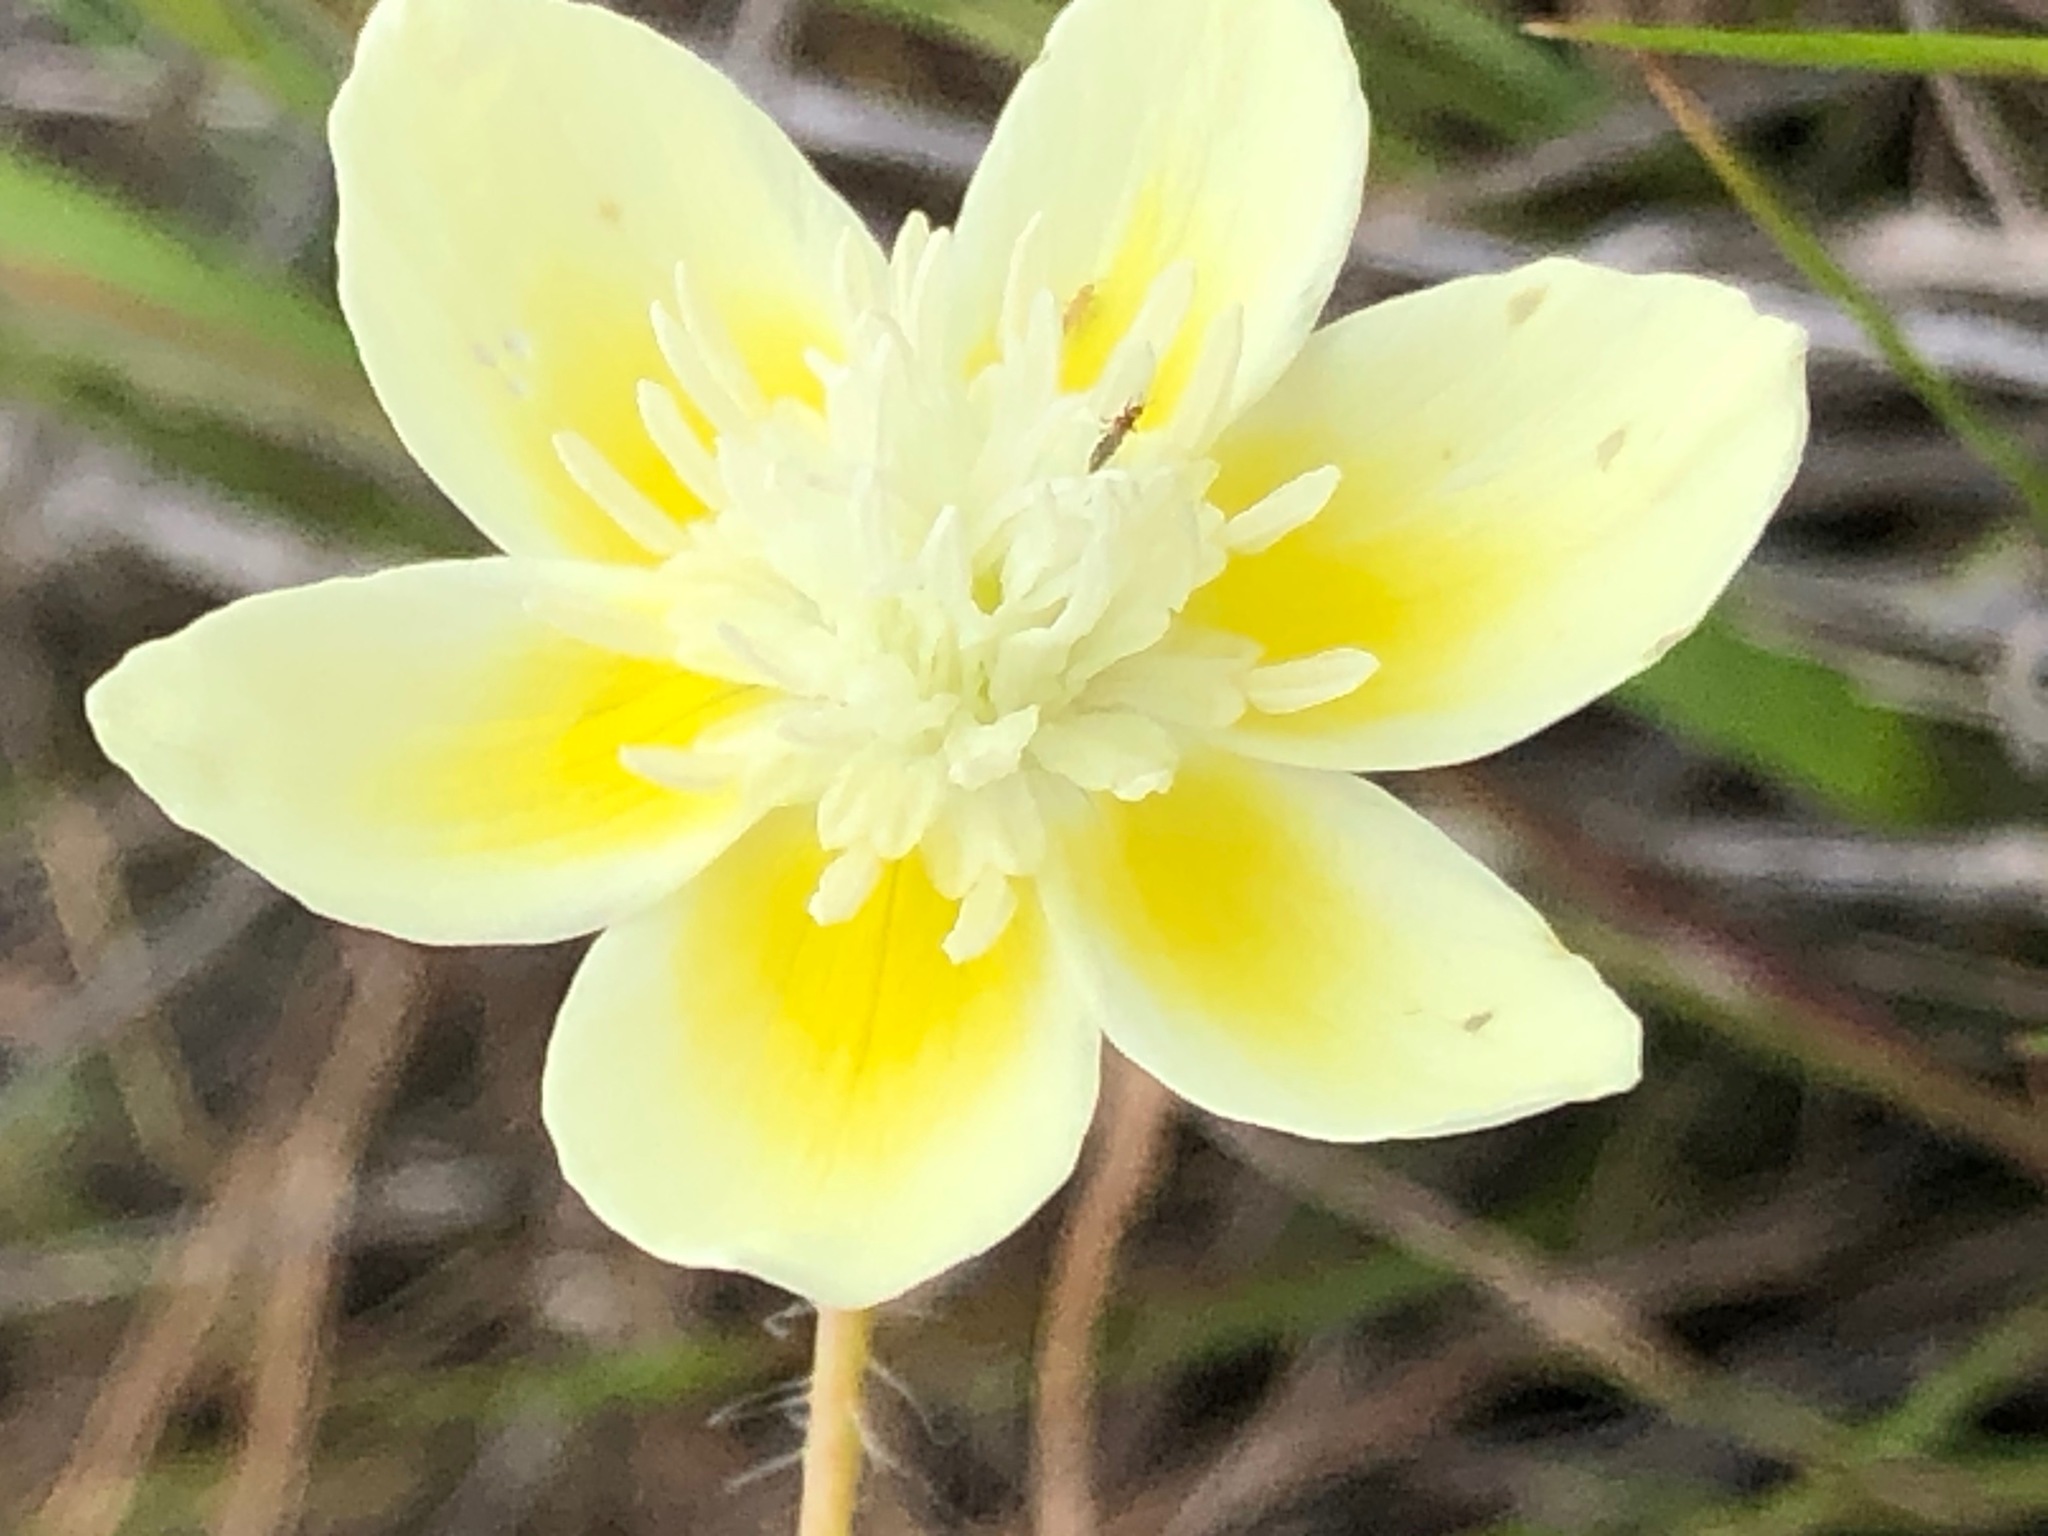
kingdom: Plantae
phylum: Tracheophyta
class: Magnoliopsida
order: Ranunculales
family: Papaveraceae
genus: Platystemon
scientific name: Platystemon californicus
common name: Cream-cups
